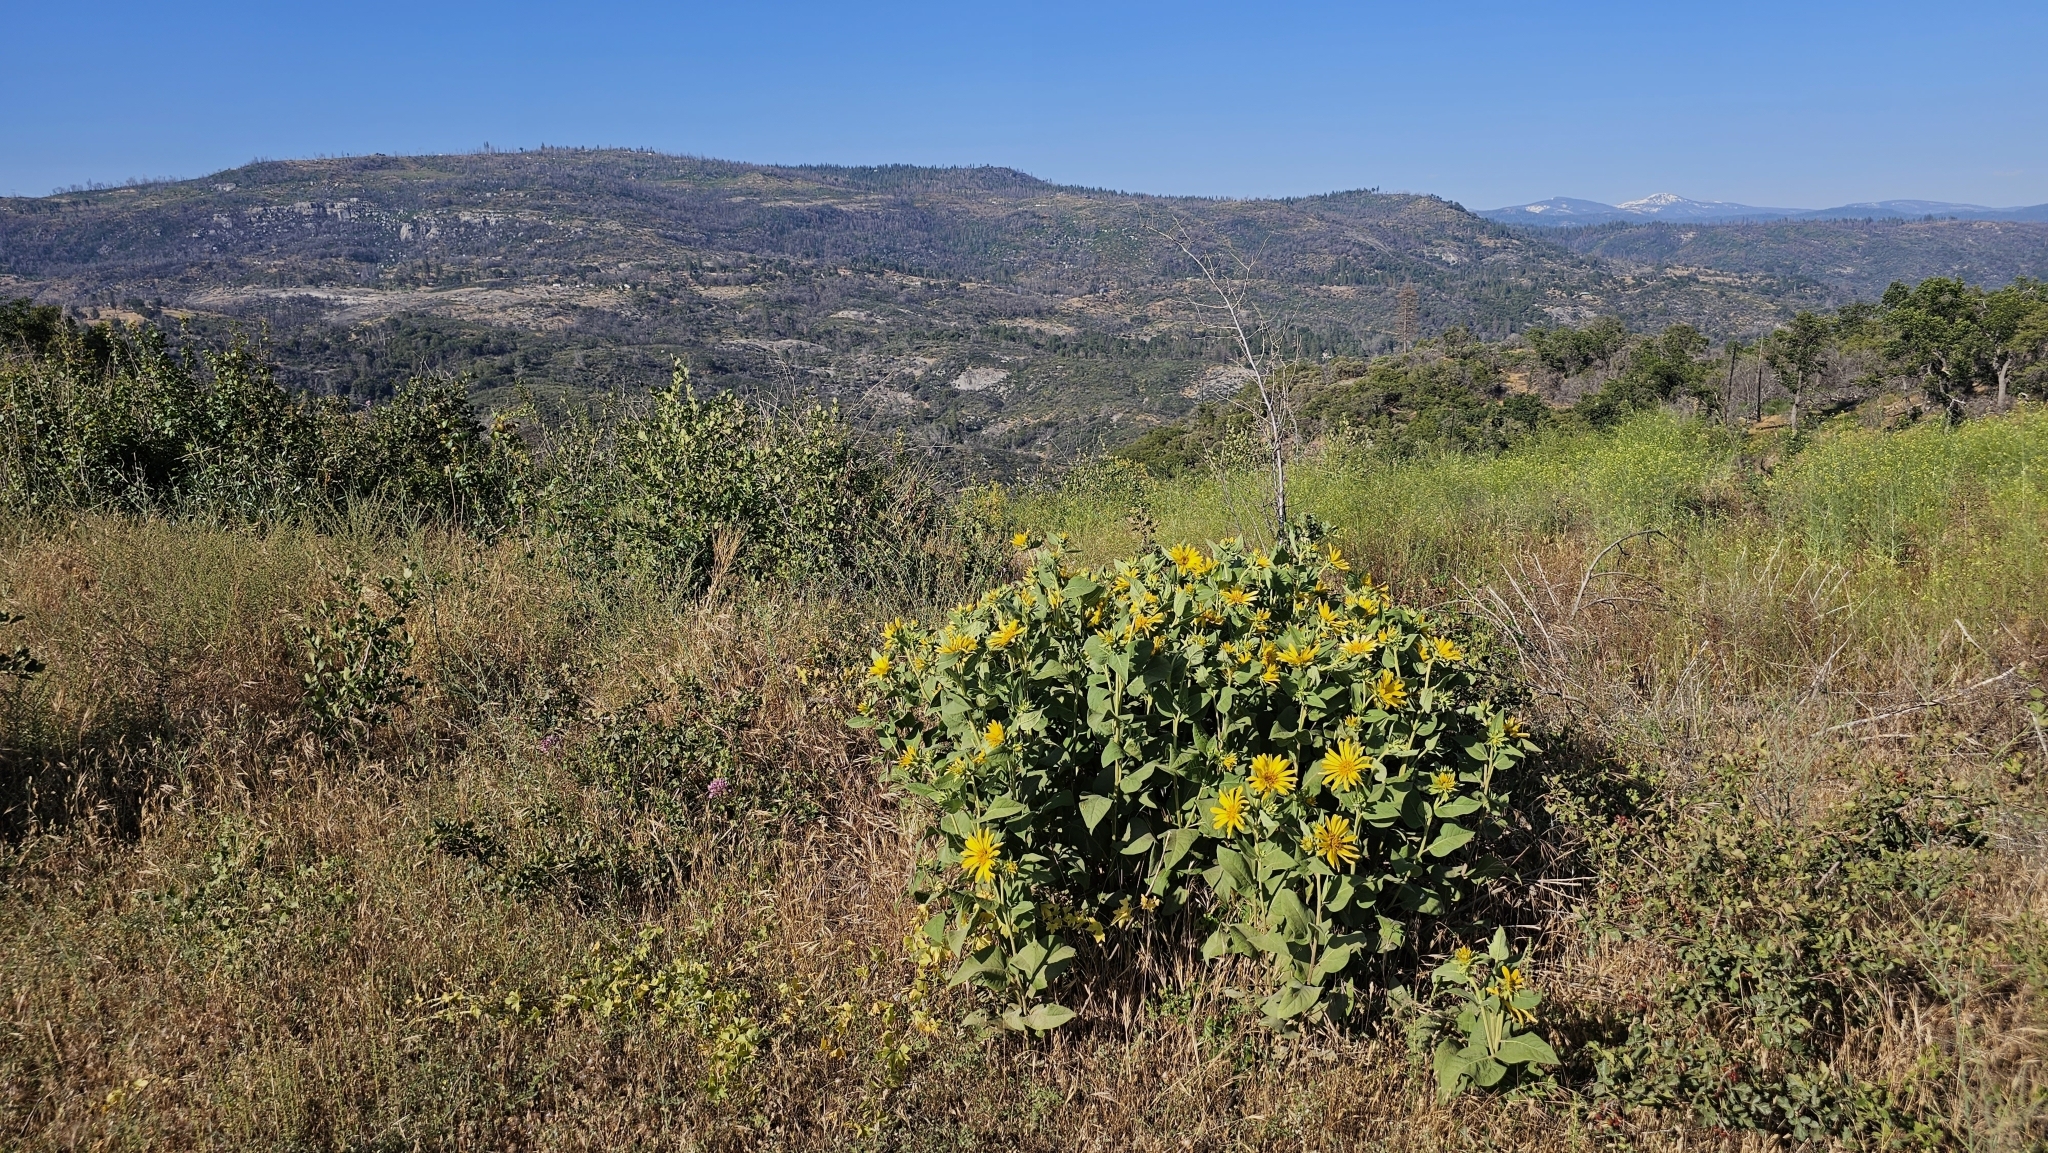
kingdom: Plantae
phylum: Tracheophyta
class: Magnoliopsida
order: Asterales
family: Asteraceae
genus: Agnorhiza
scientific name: Agnorhiza elata
